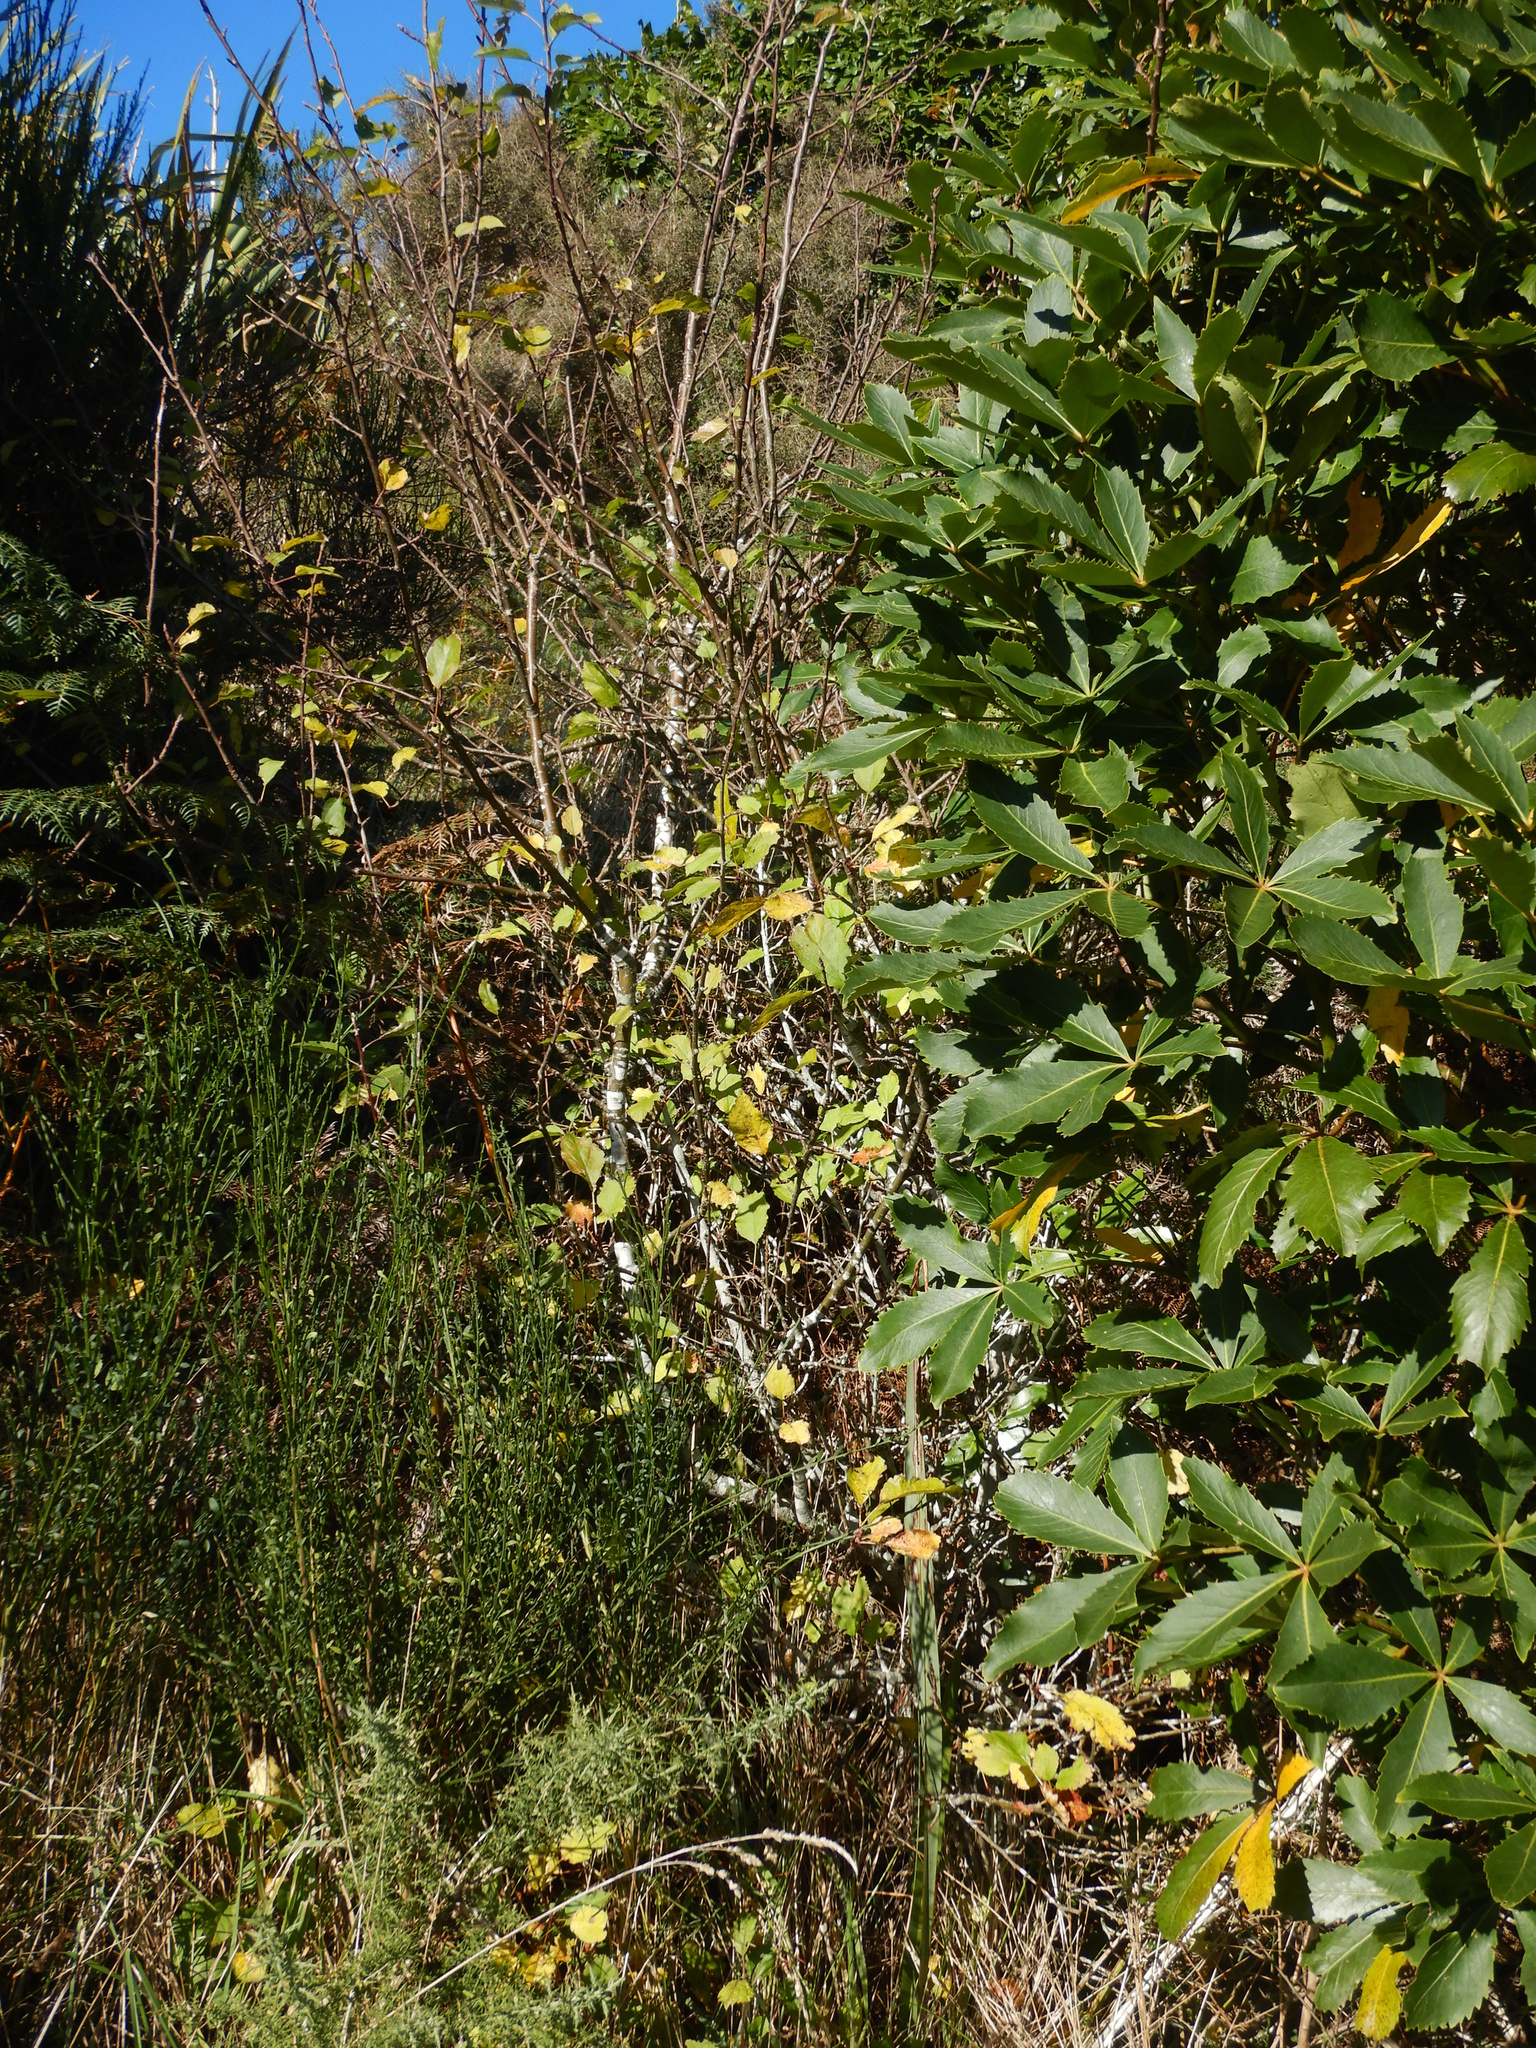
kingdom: Plantae
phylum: Tracheophyta
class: Magnoliopsida
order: Apiales
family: Araliaceae
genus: Neopanax
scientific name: Neopanax colensoi
